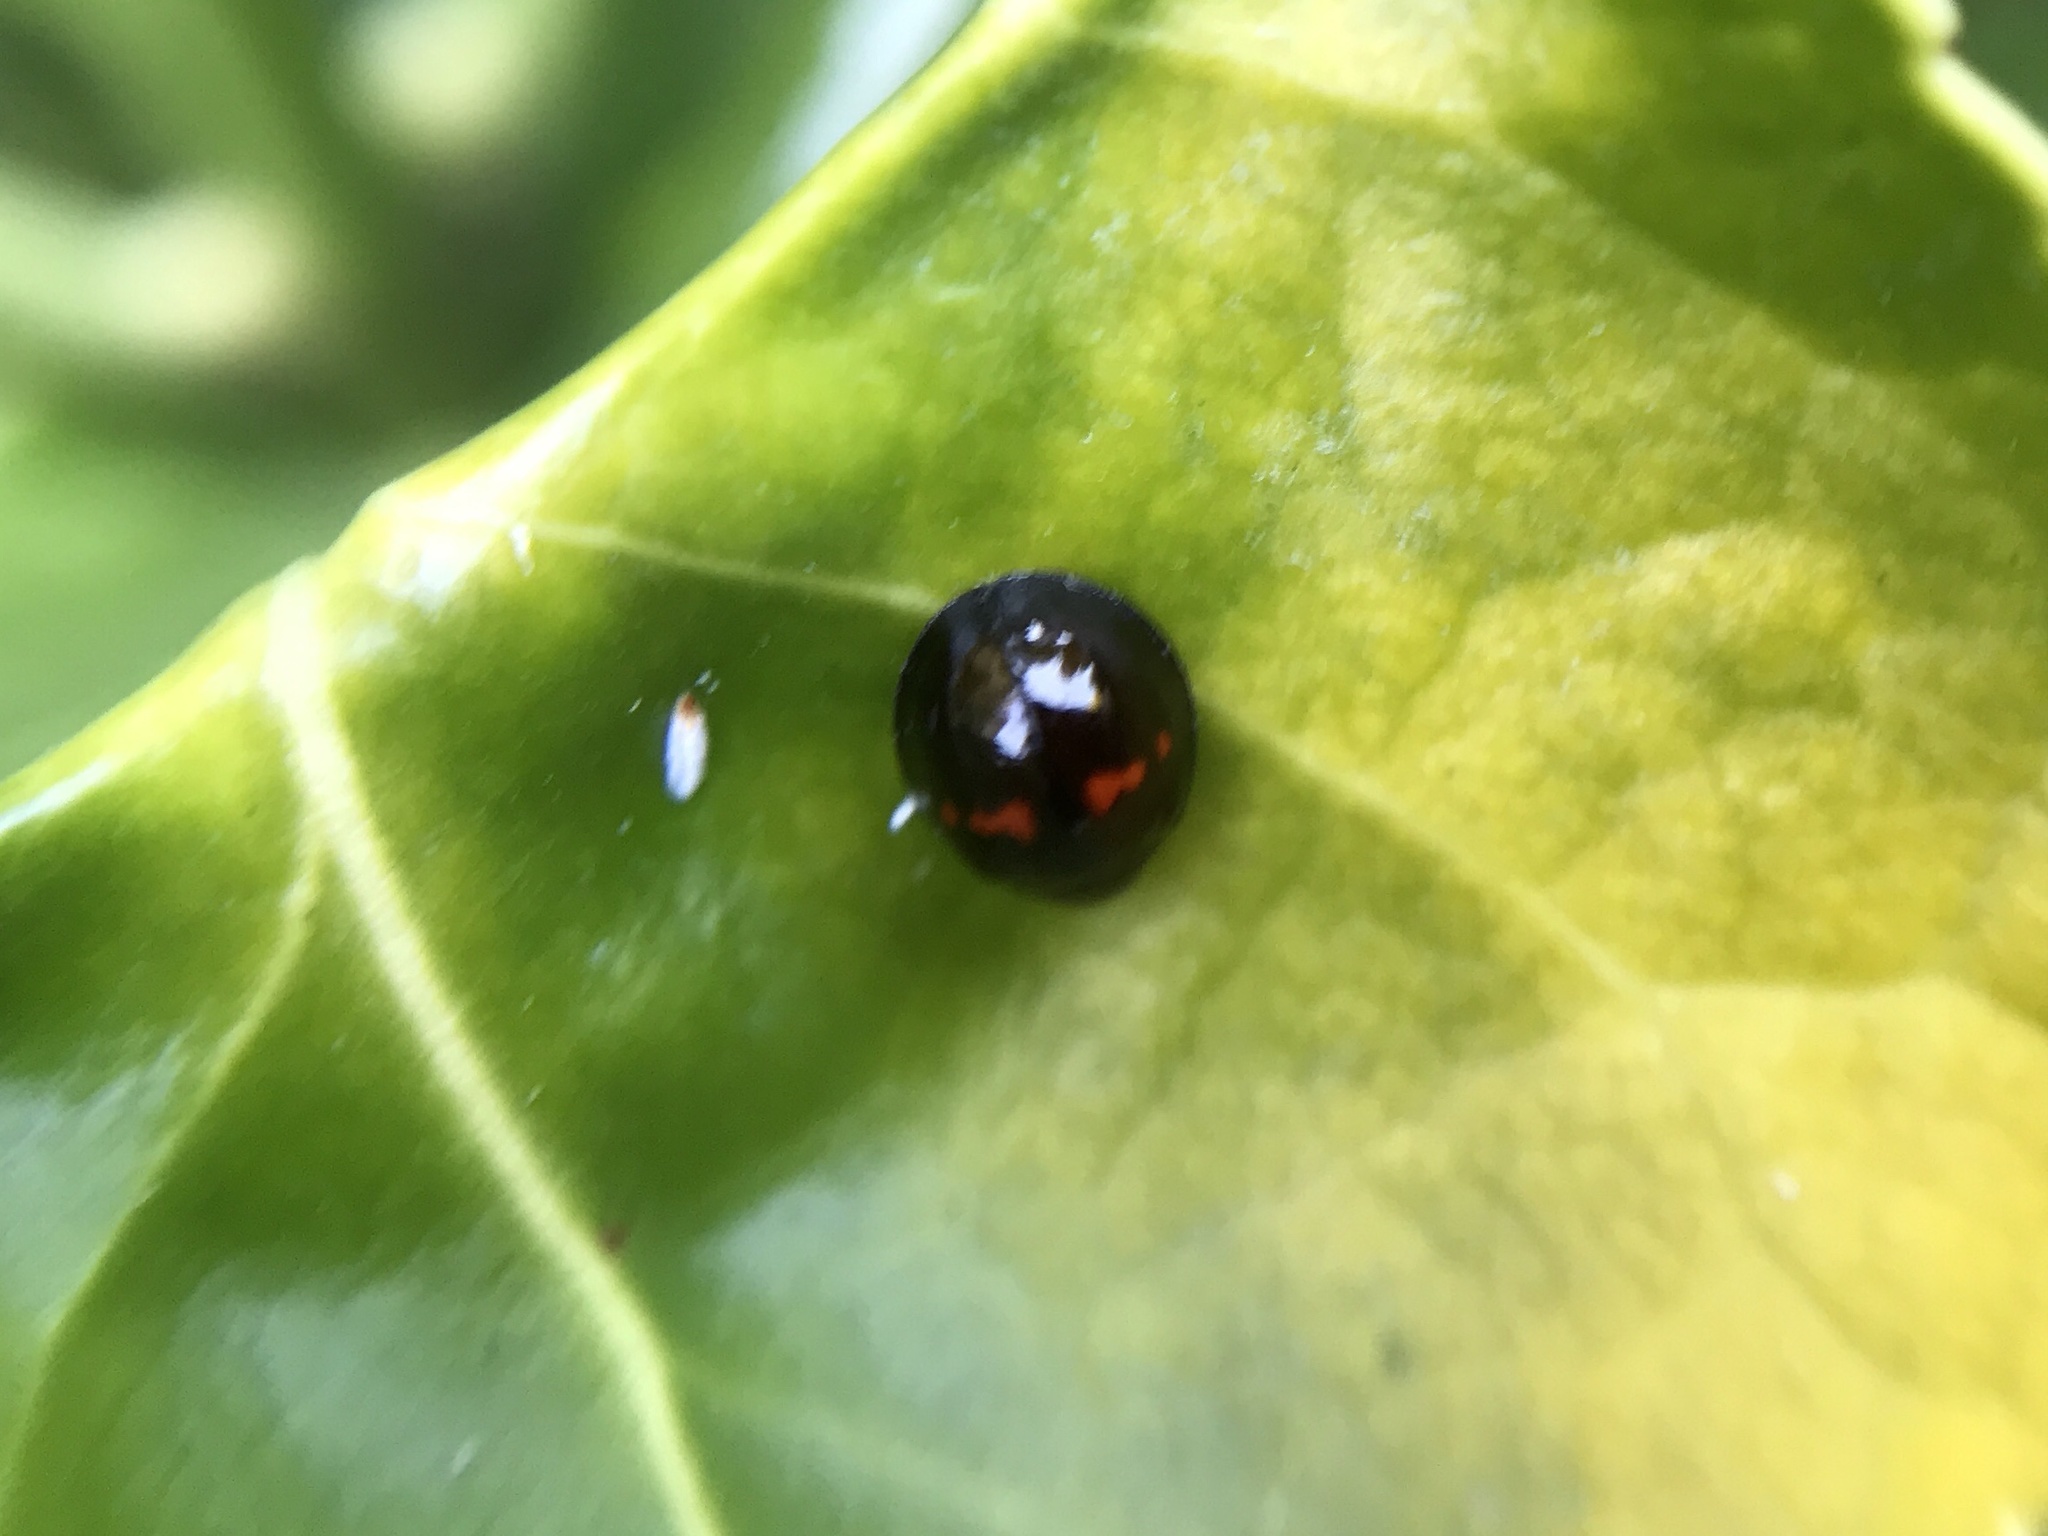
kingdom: Animalia
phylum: Arthropoda
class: Insecta
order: Coleoptera
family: Coccinellidae
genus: Chilocorus
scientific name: Chilocorus bipustulatus
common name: Heather ladybird
